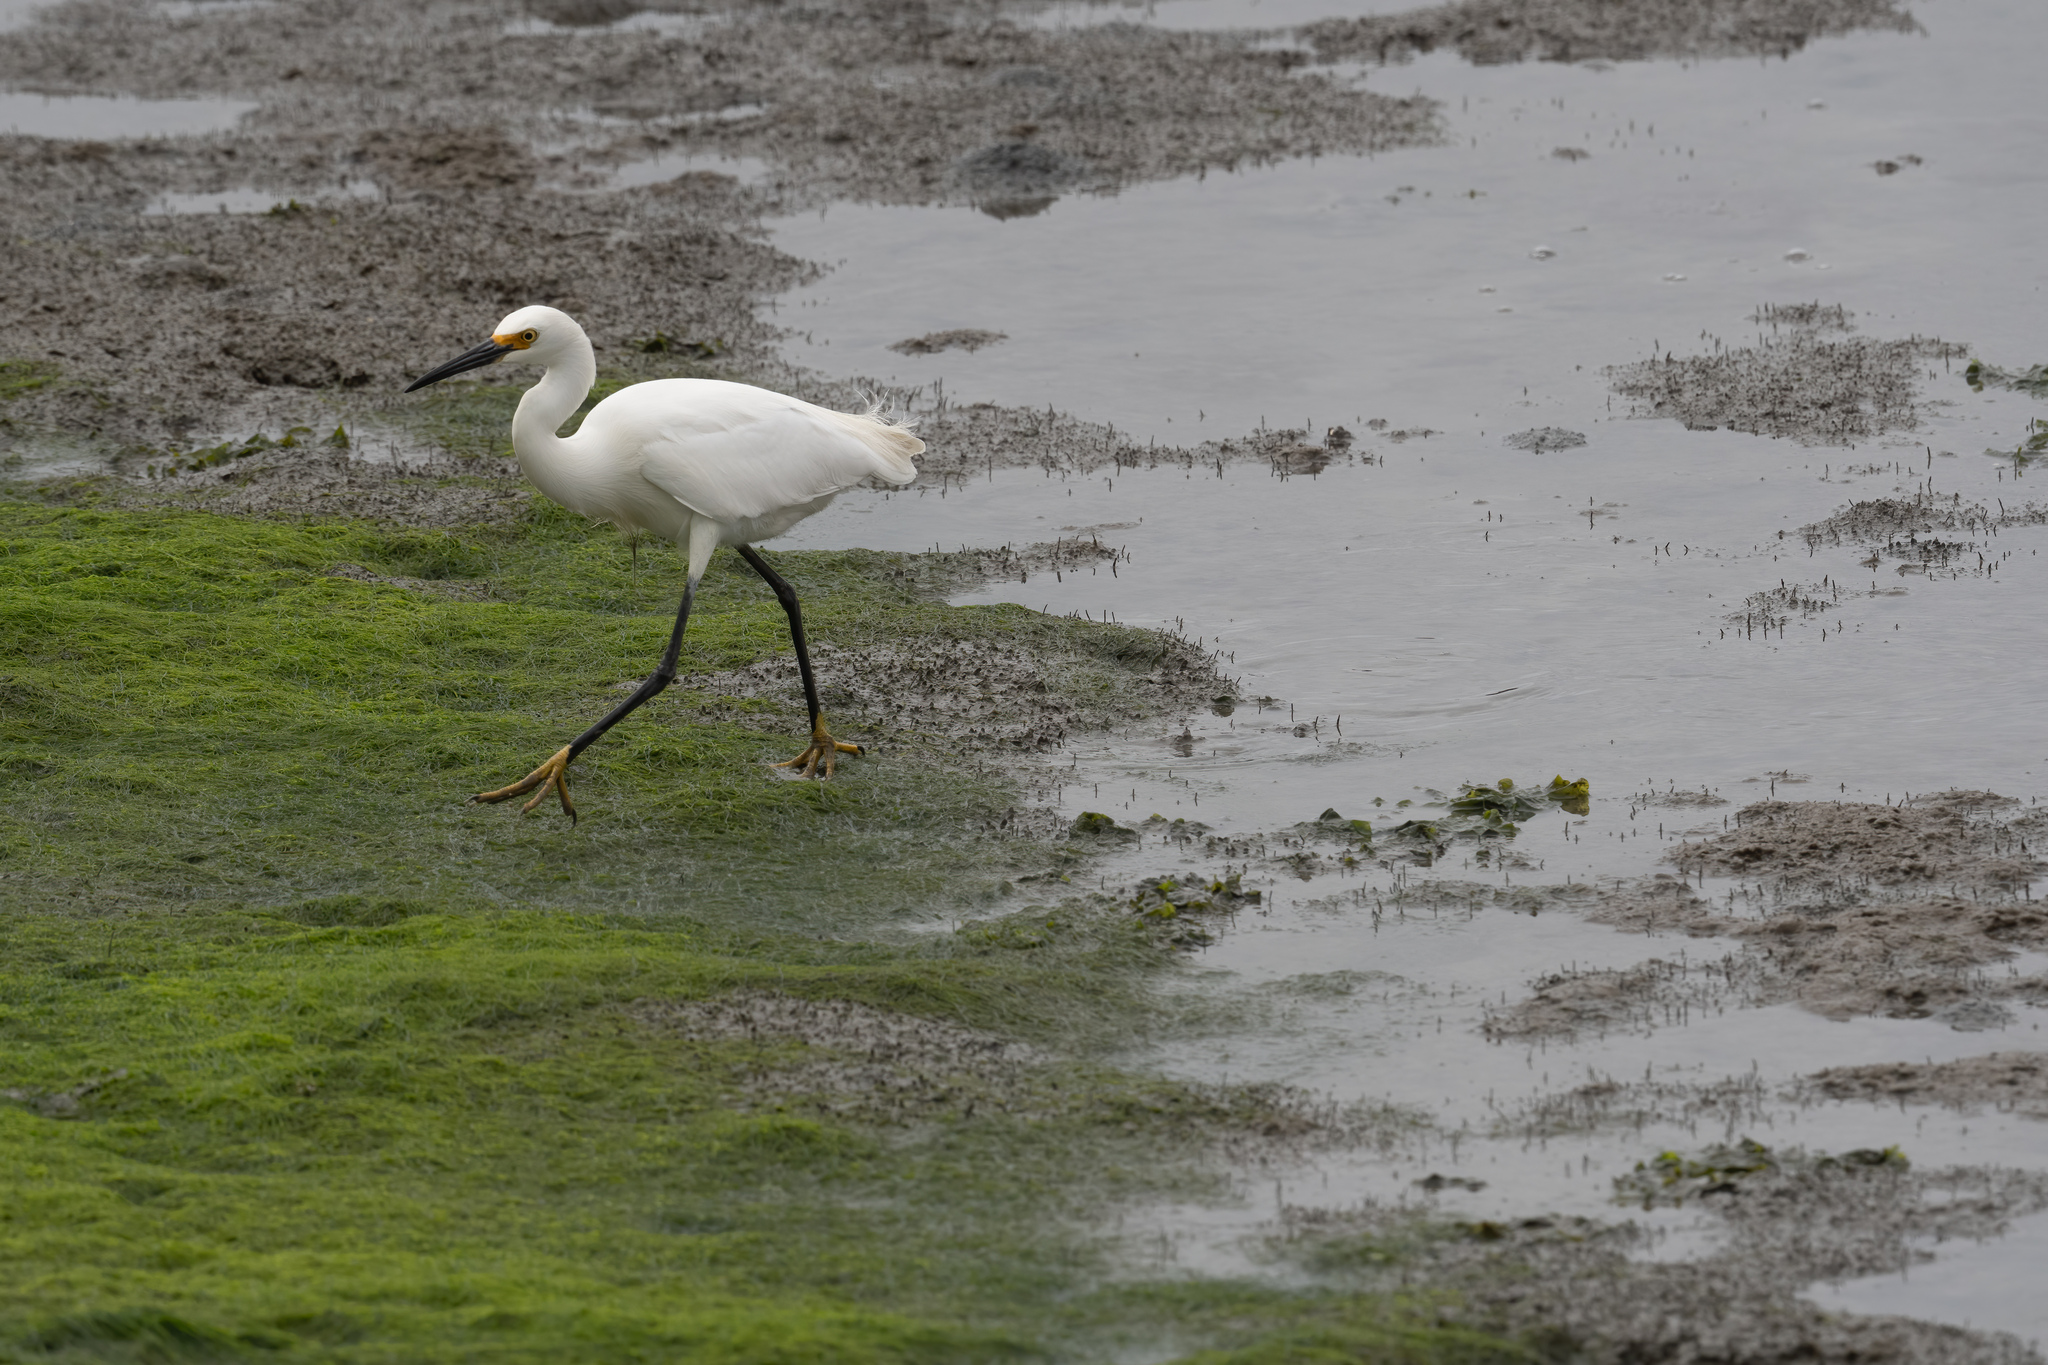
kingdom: Animalia
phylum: Chordata
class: Aves
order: Pelecaniformes
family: Ardeidae
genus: Egretta
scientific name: Egretta thula
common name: Snowy egret
